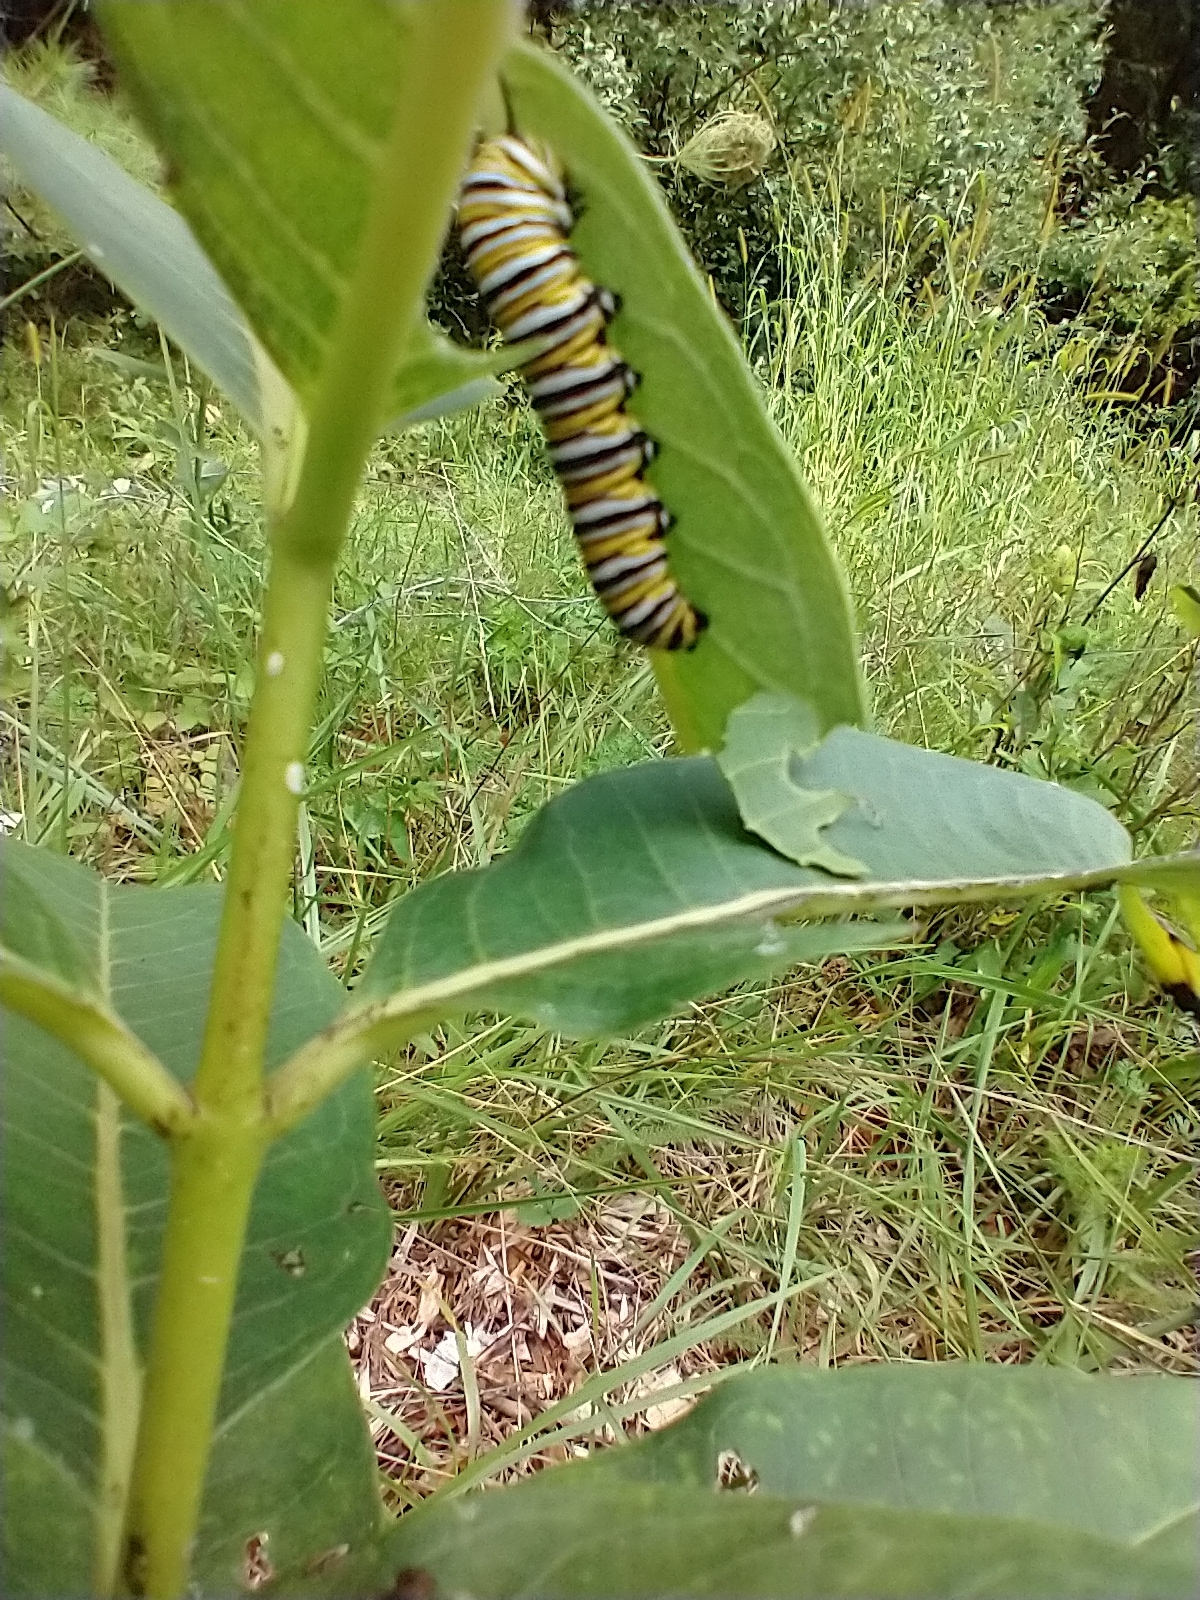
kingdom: Animalia
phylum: Arthropoda
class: Insecta
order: Lepidoptera
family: Nymphalidae
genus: Danaus
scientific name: Danaus plexippus
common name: Monarch
